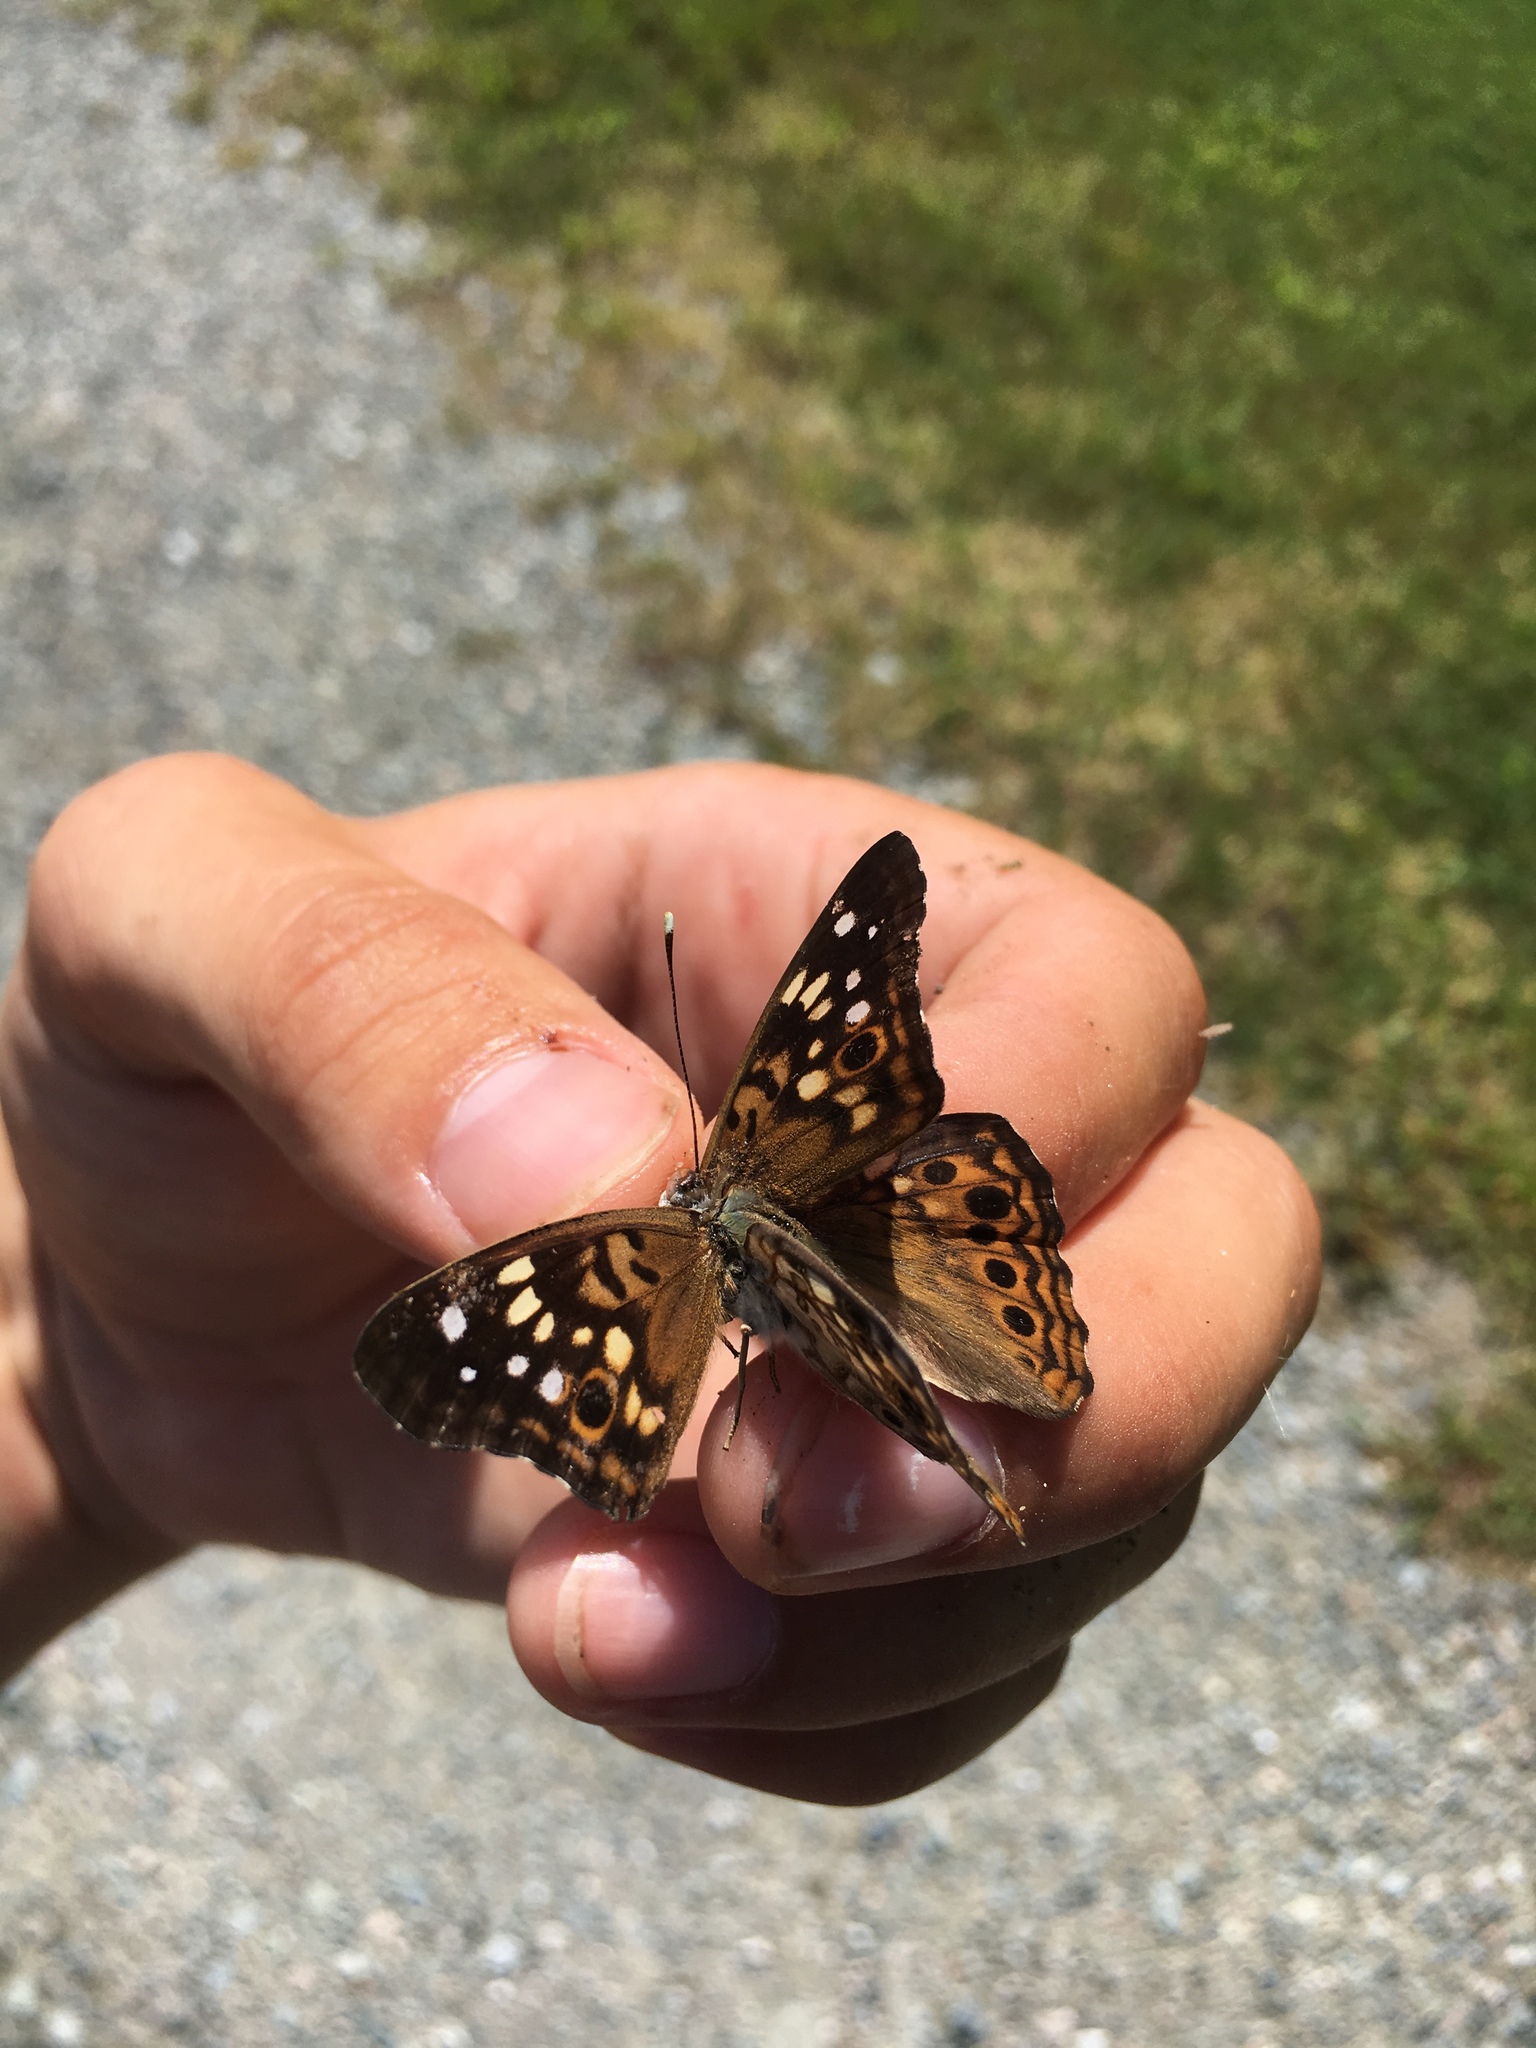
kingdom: Animalia
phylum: Arthropoda
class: Insecta
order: Lepidoptera
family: Nymphalidae
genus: Asterocampa
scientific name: Asterocampa celtis
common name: Hackberry emperor
